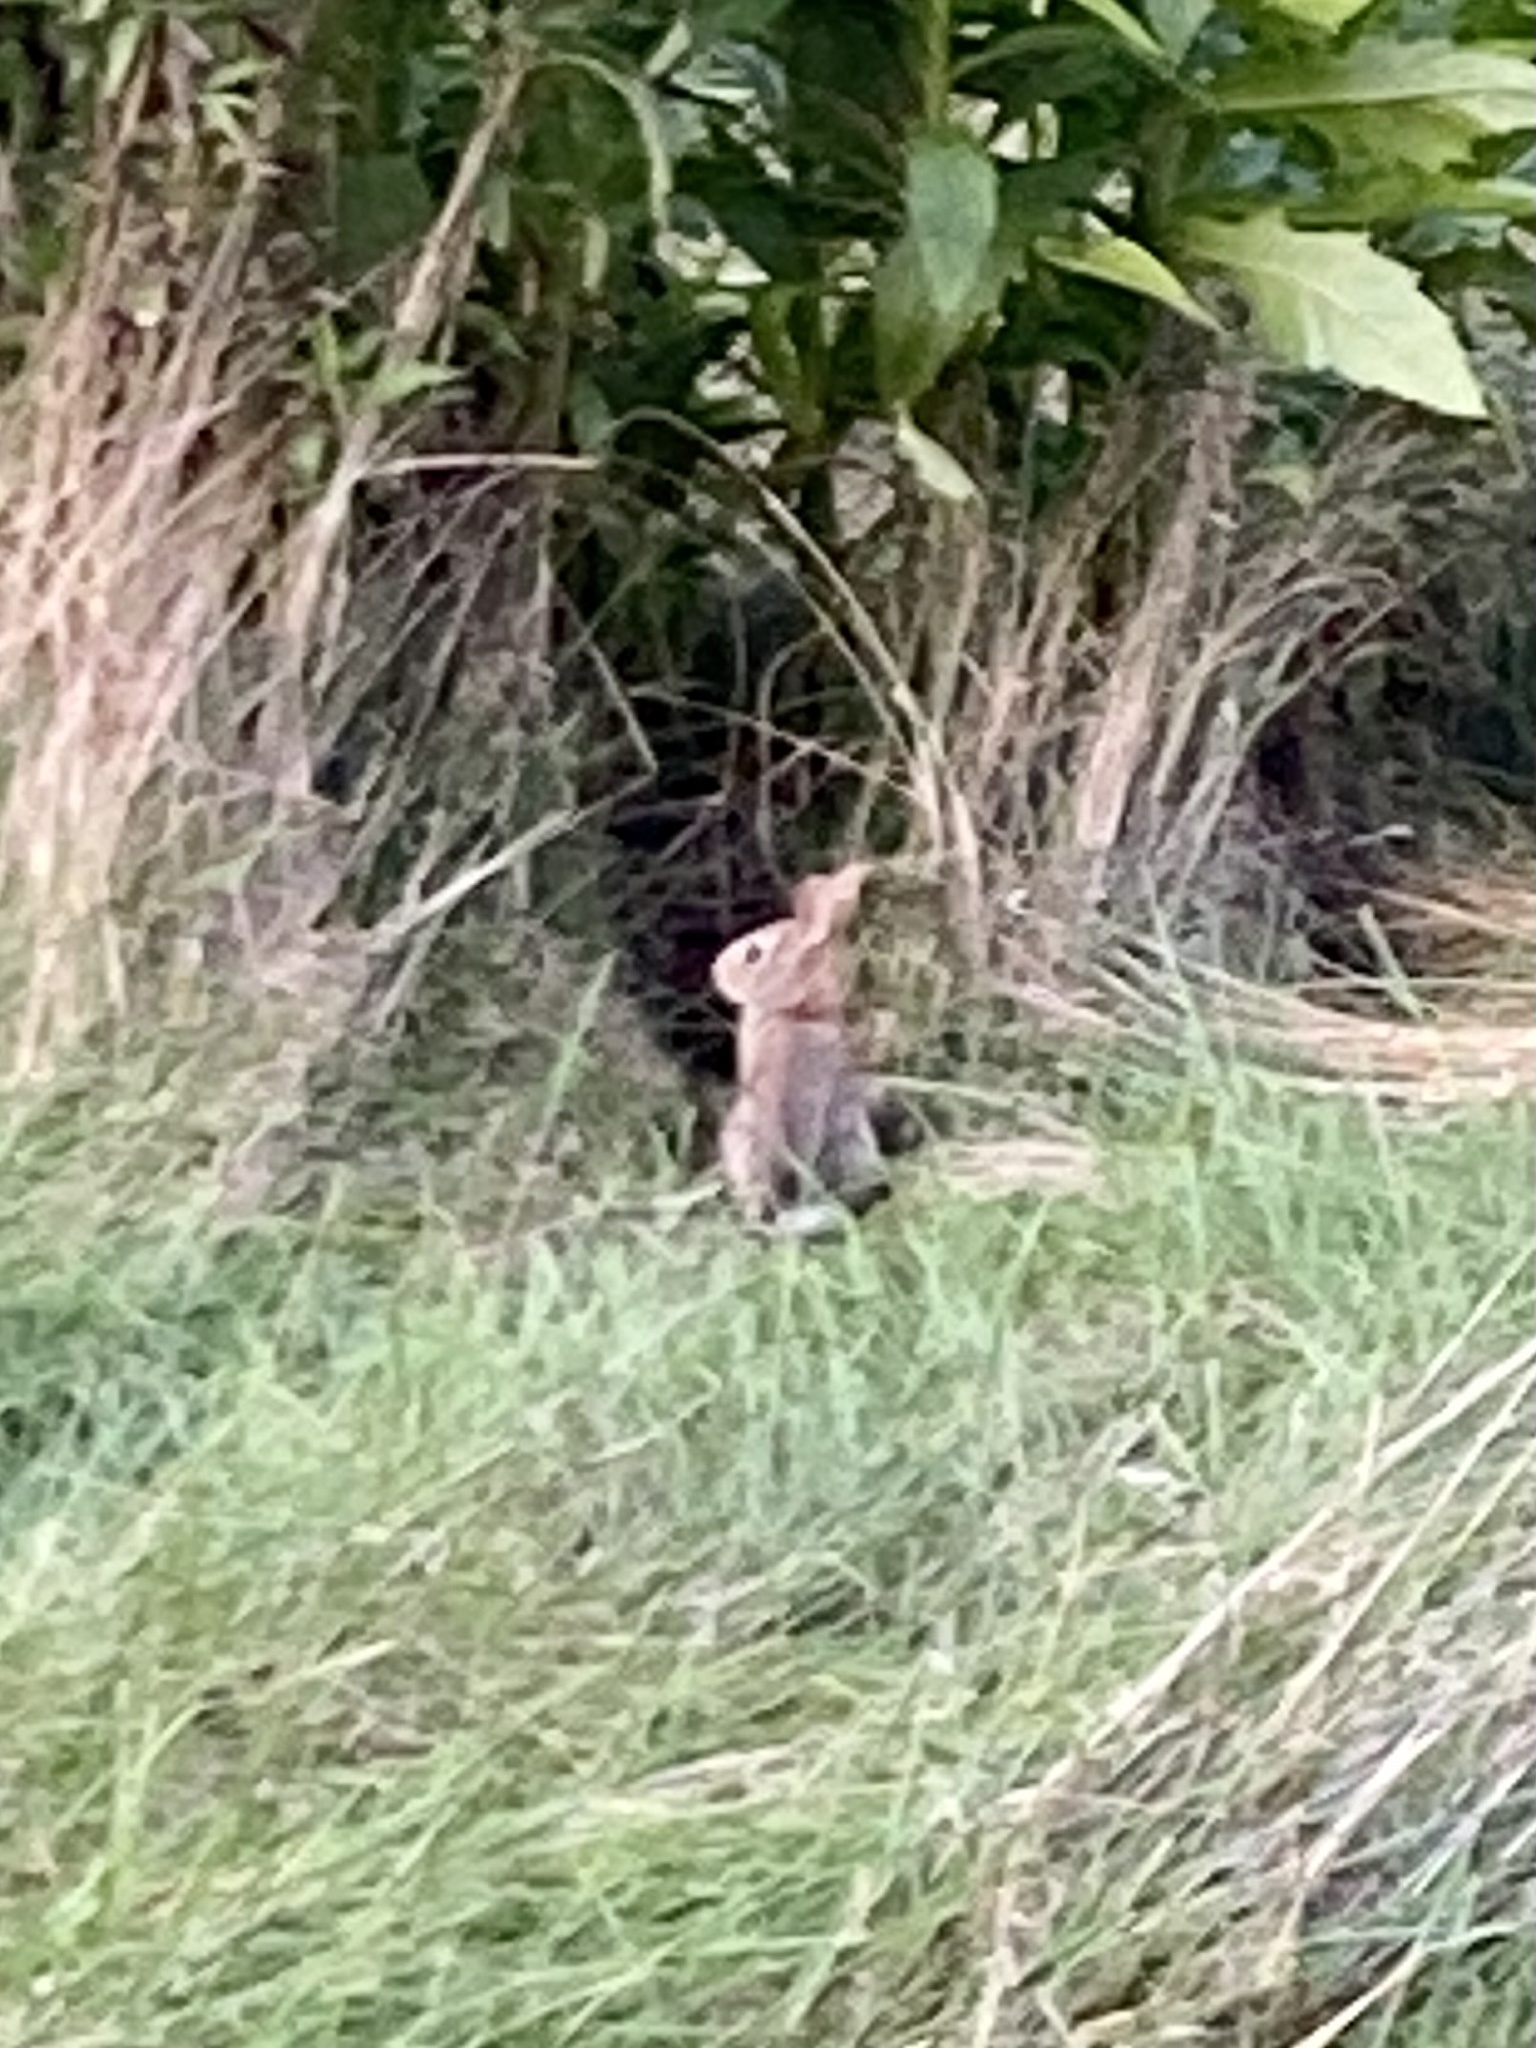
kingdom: Animalia
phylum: Chordata
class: Mammalia
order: Lagomorpha
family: Leporidae
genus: Sylvilagus
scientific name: Sylvilagus floridanus
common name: Eastern cottontail
